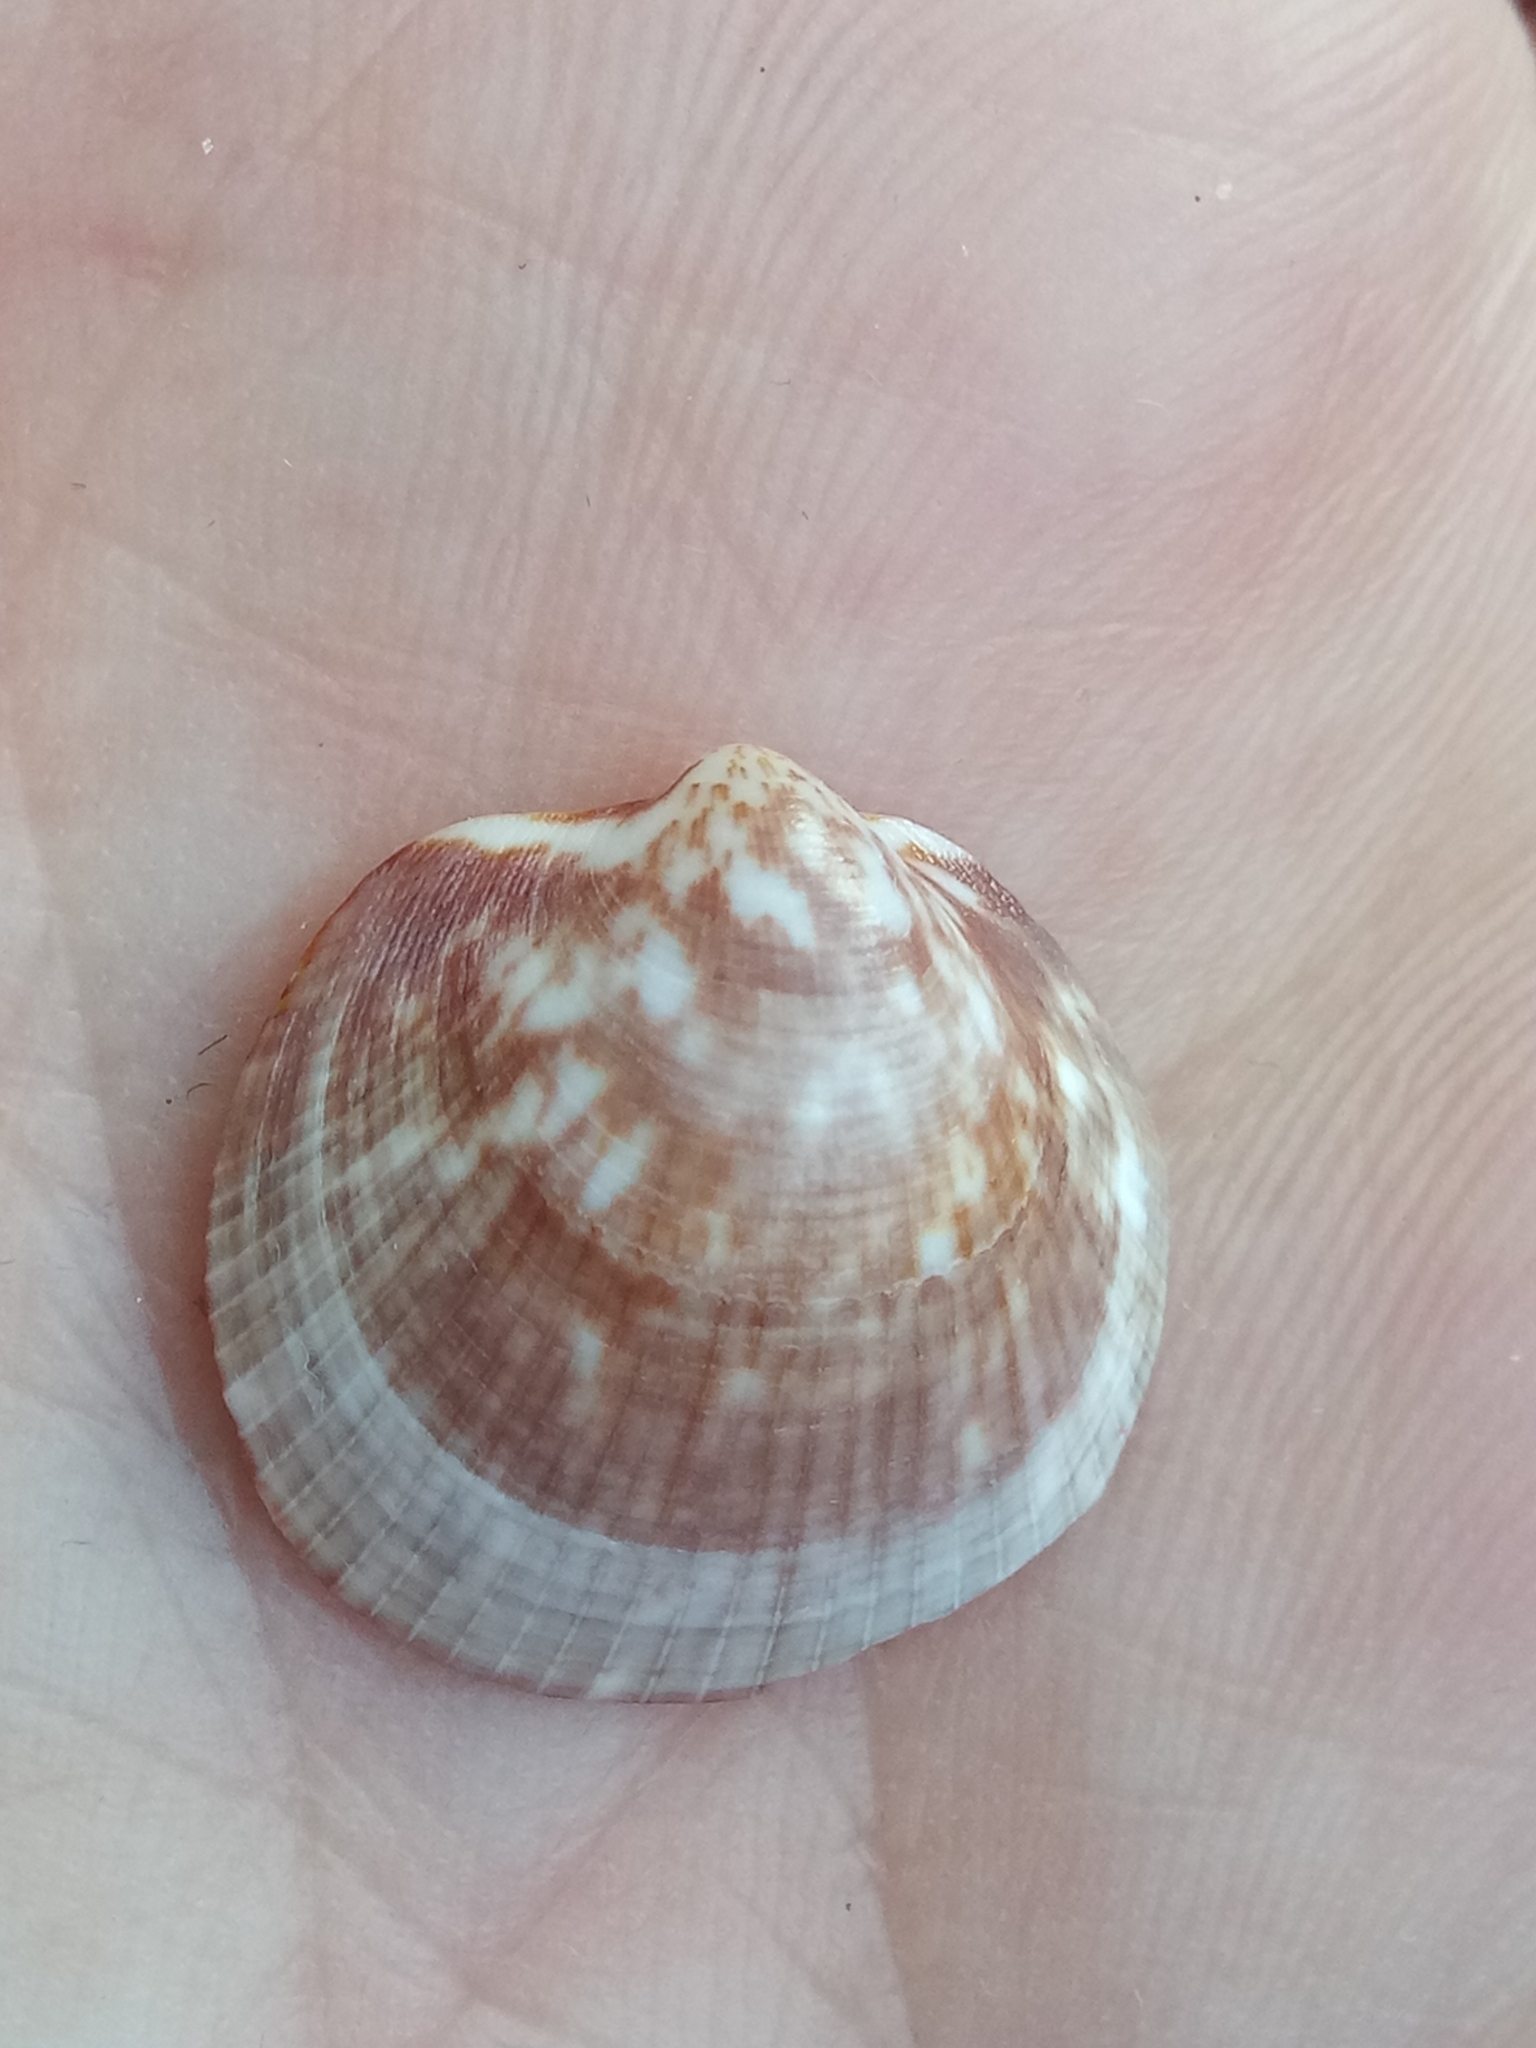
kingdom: Animalia
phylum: Mollusca
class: Bivalvia
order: Arcida
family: Glycymerididae
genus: Glycymeris
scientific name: Glycymeris glycymeris
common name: Dog-cockle
